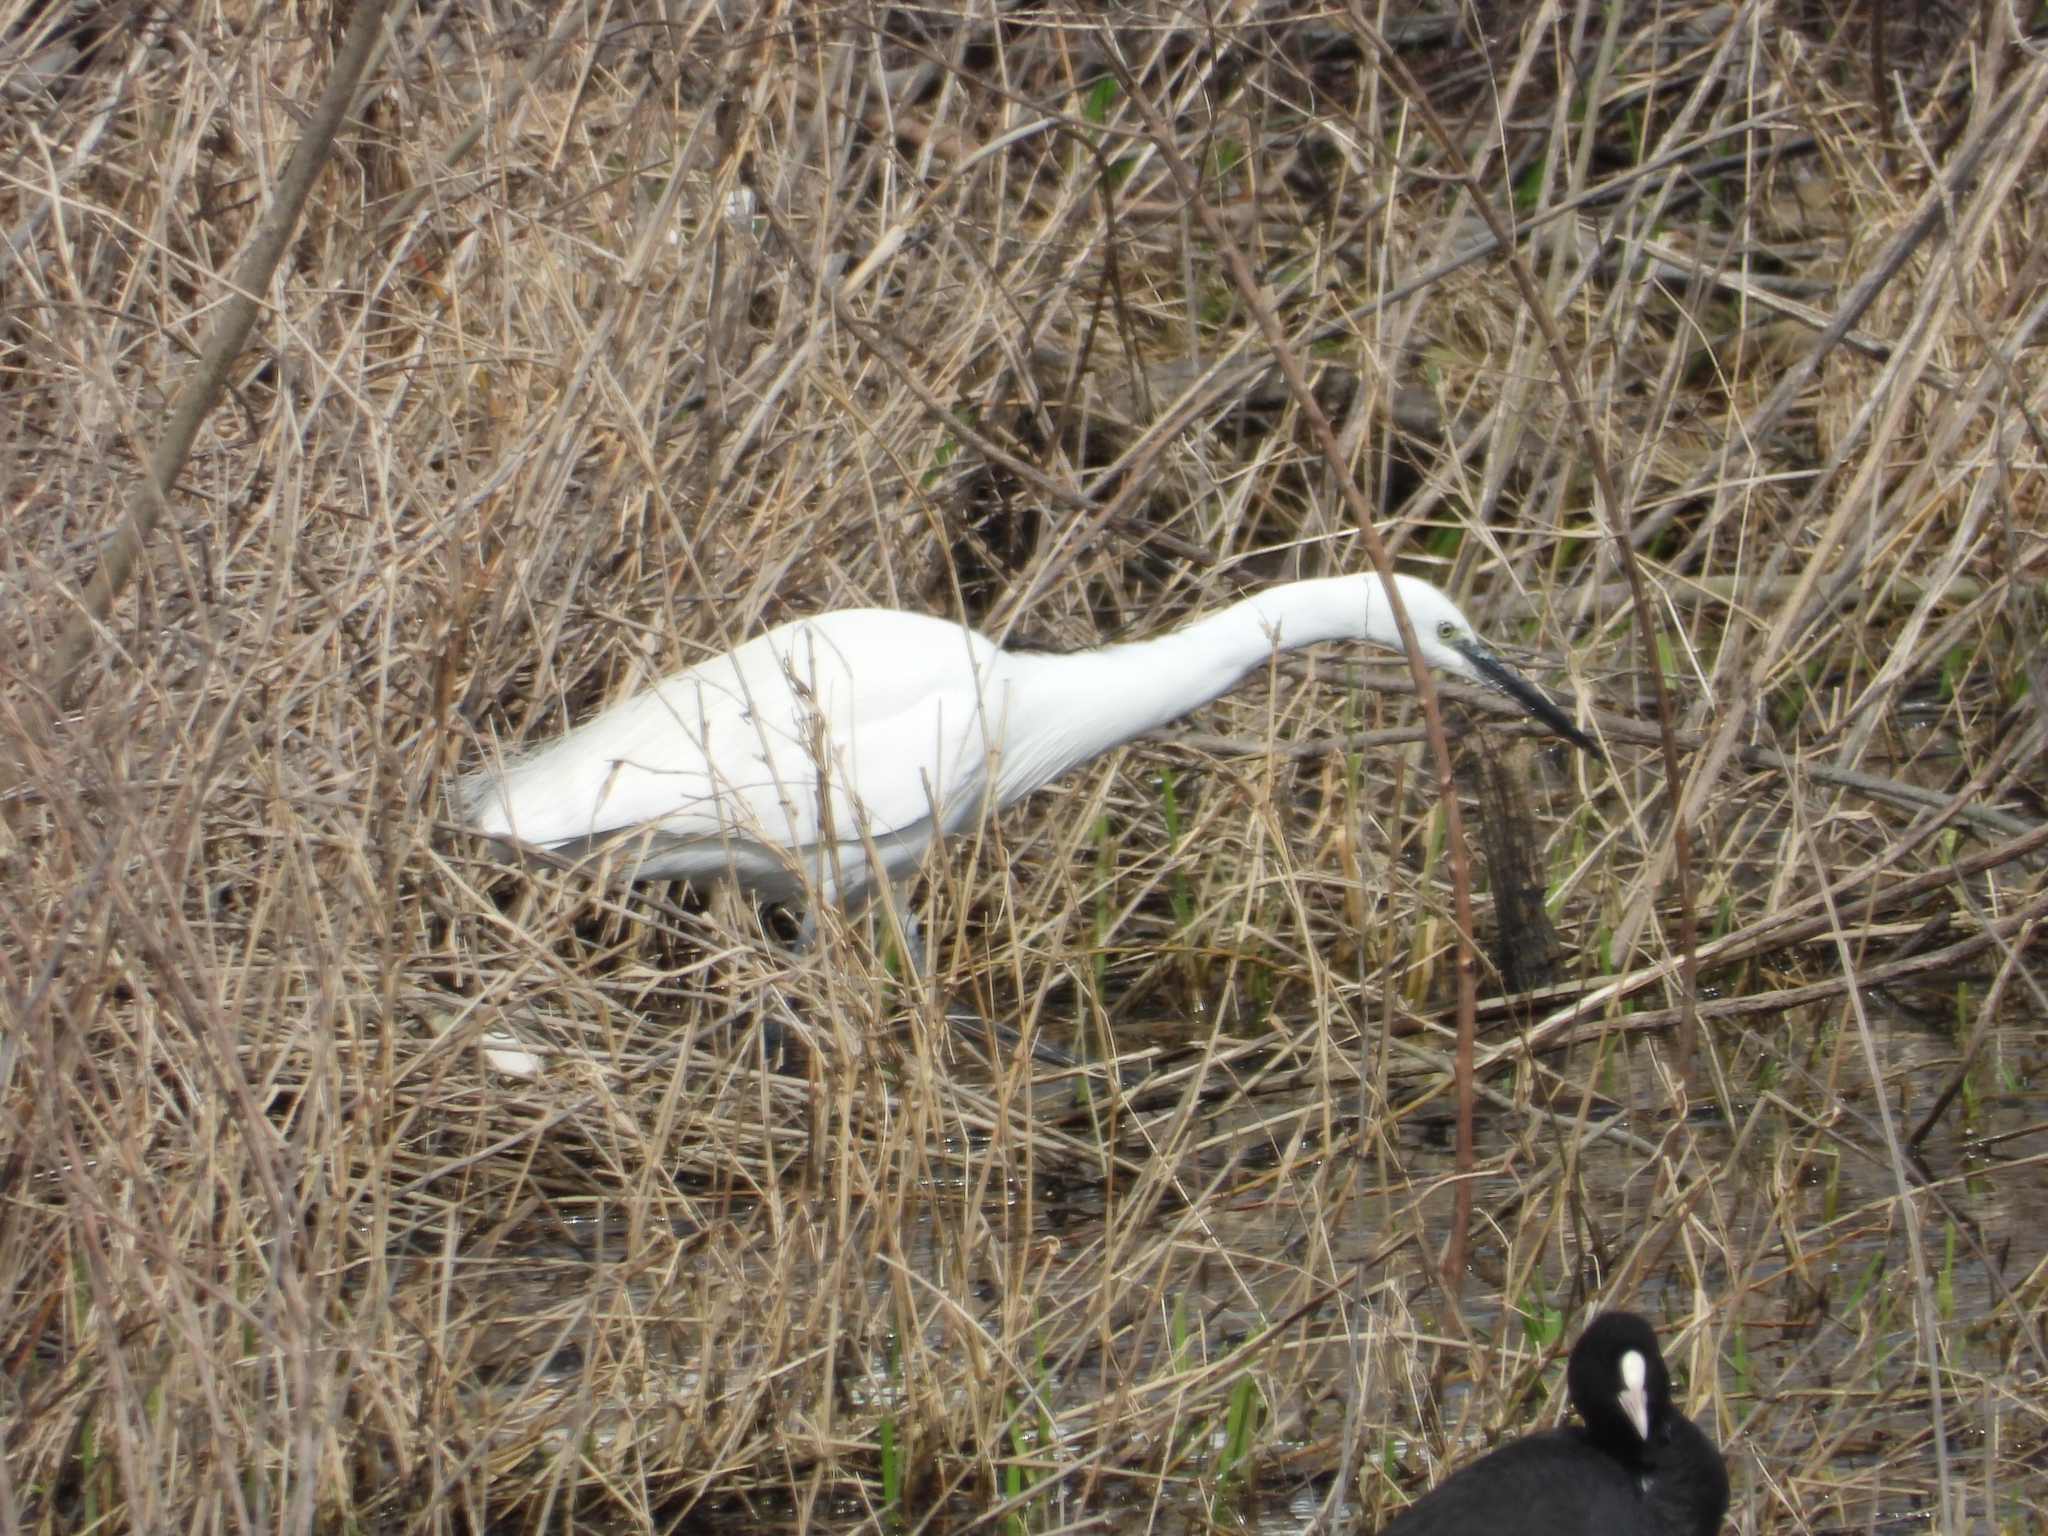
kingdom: Animalia
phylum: Chordata
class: Aves
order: Pelecaniformes
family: Ardeidae
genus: Egretta
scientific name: Egretta garzetta
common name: Little egret
